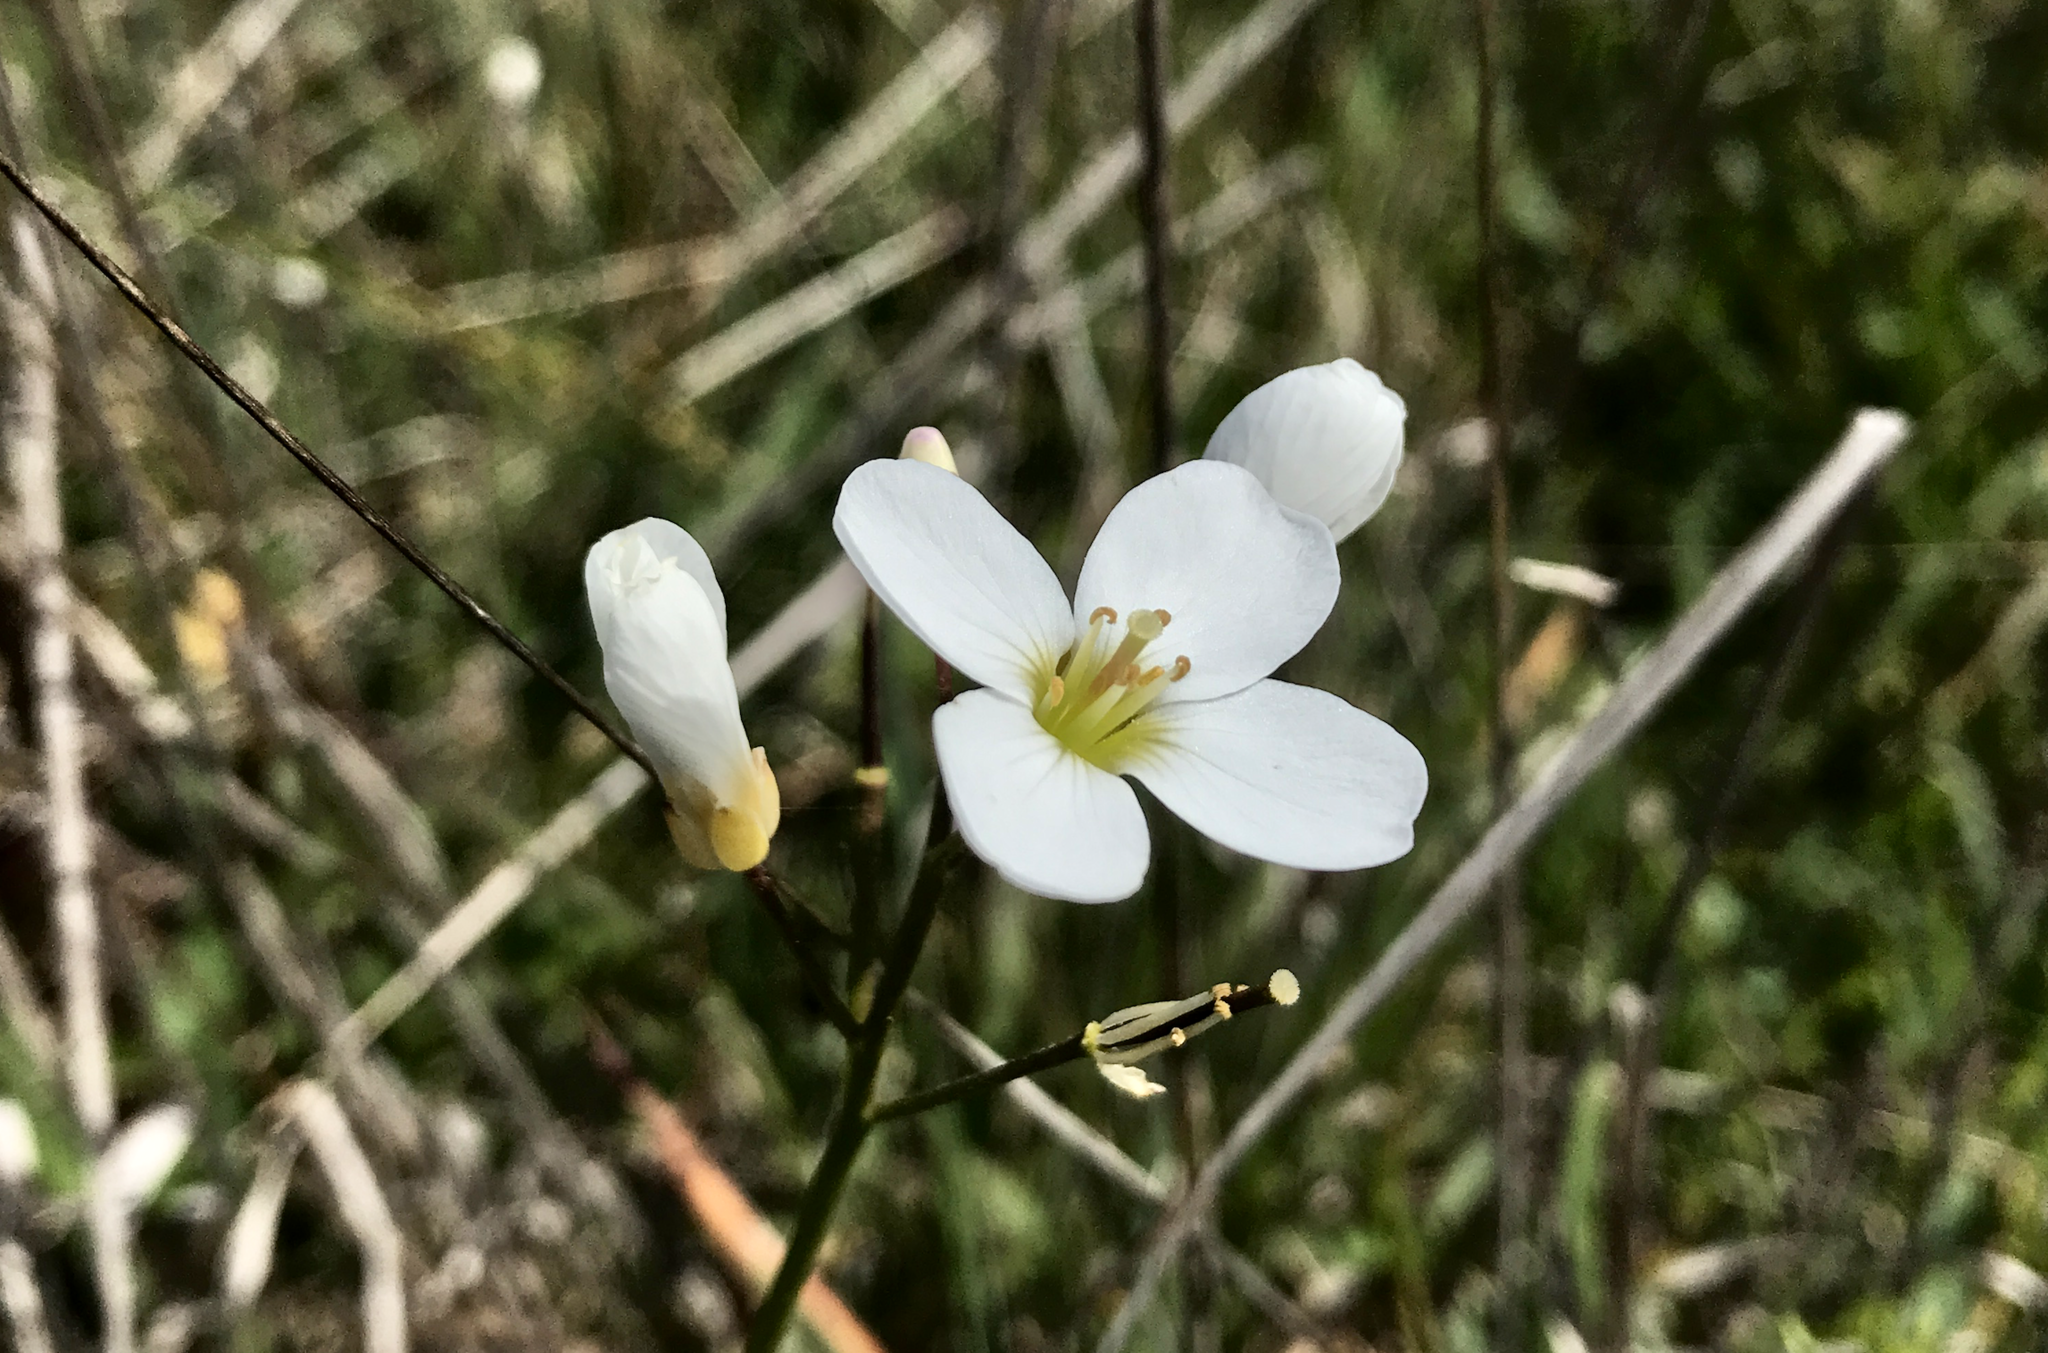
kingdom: Plantae
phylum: Tracheophyta
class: Magnoliopsida
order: Brassicales
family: Brassicaceae
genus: Cardamine
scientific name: Cardamine californica
